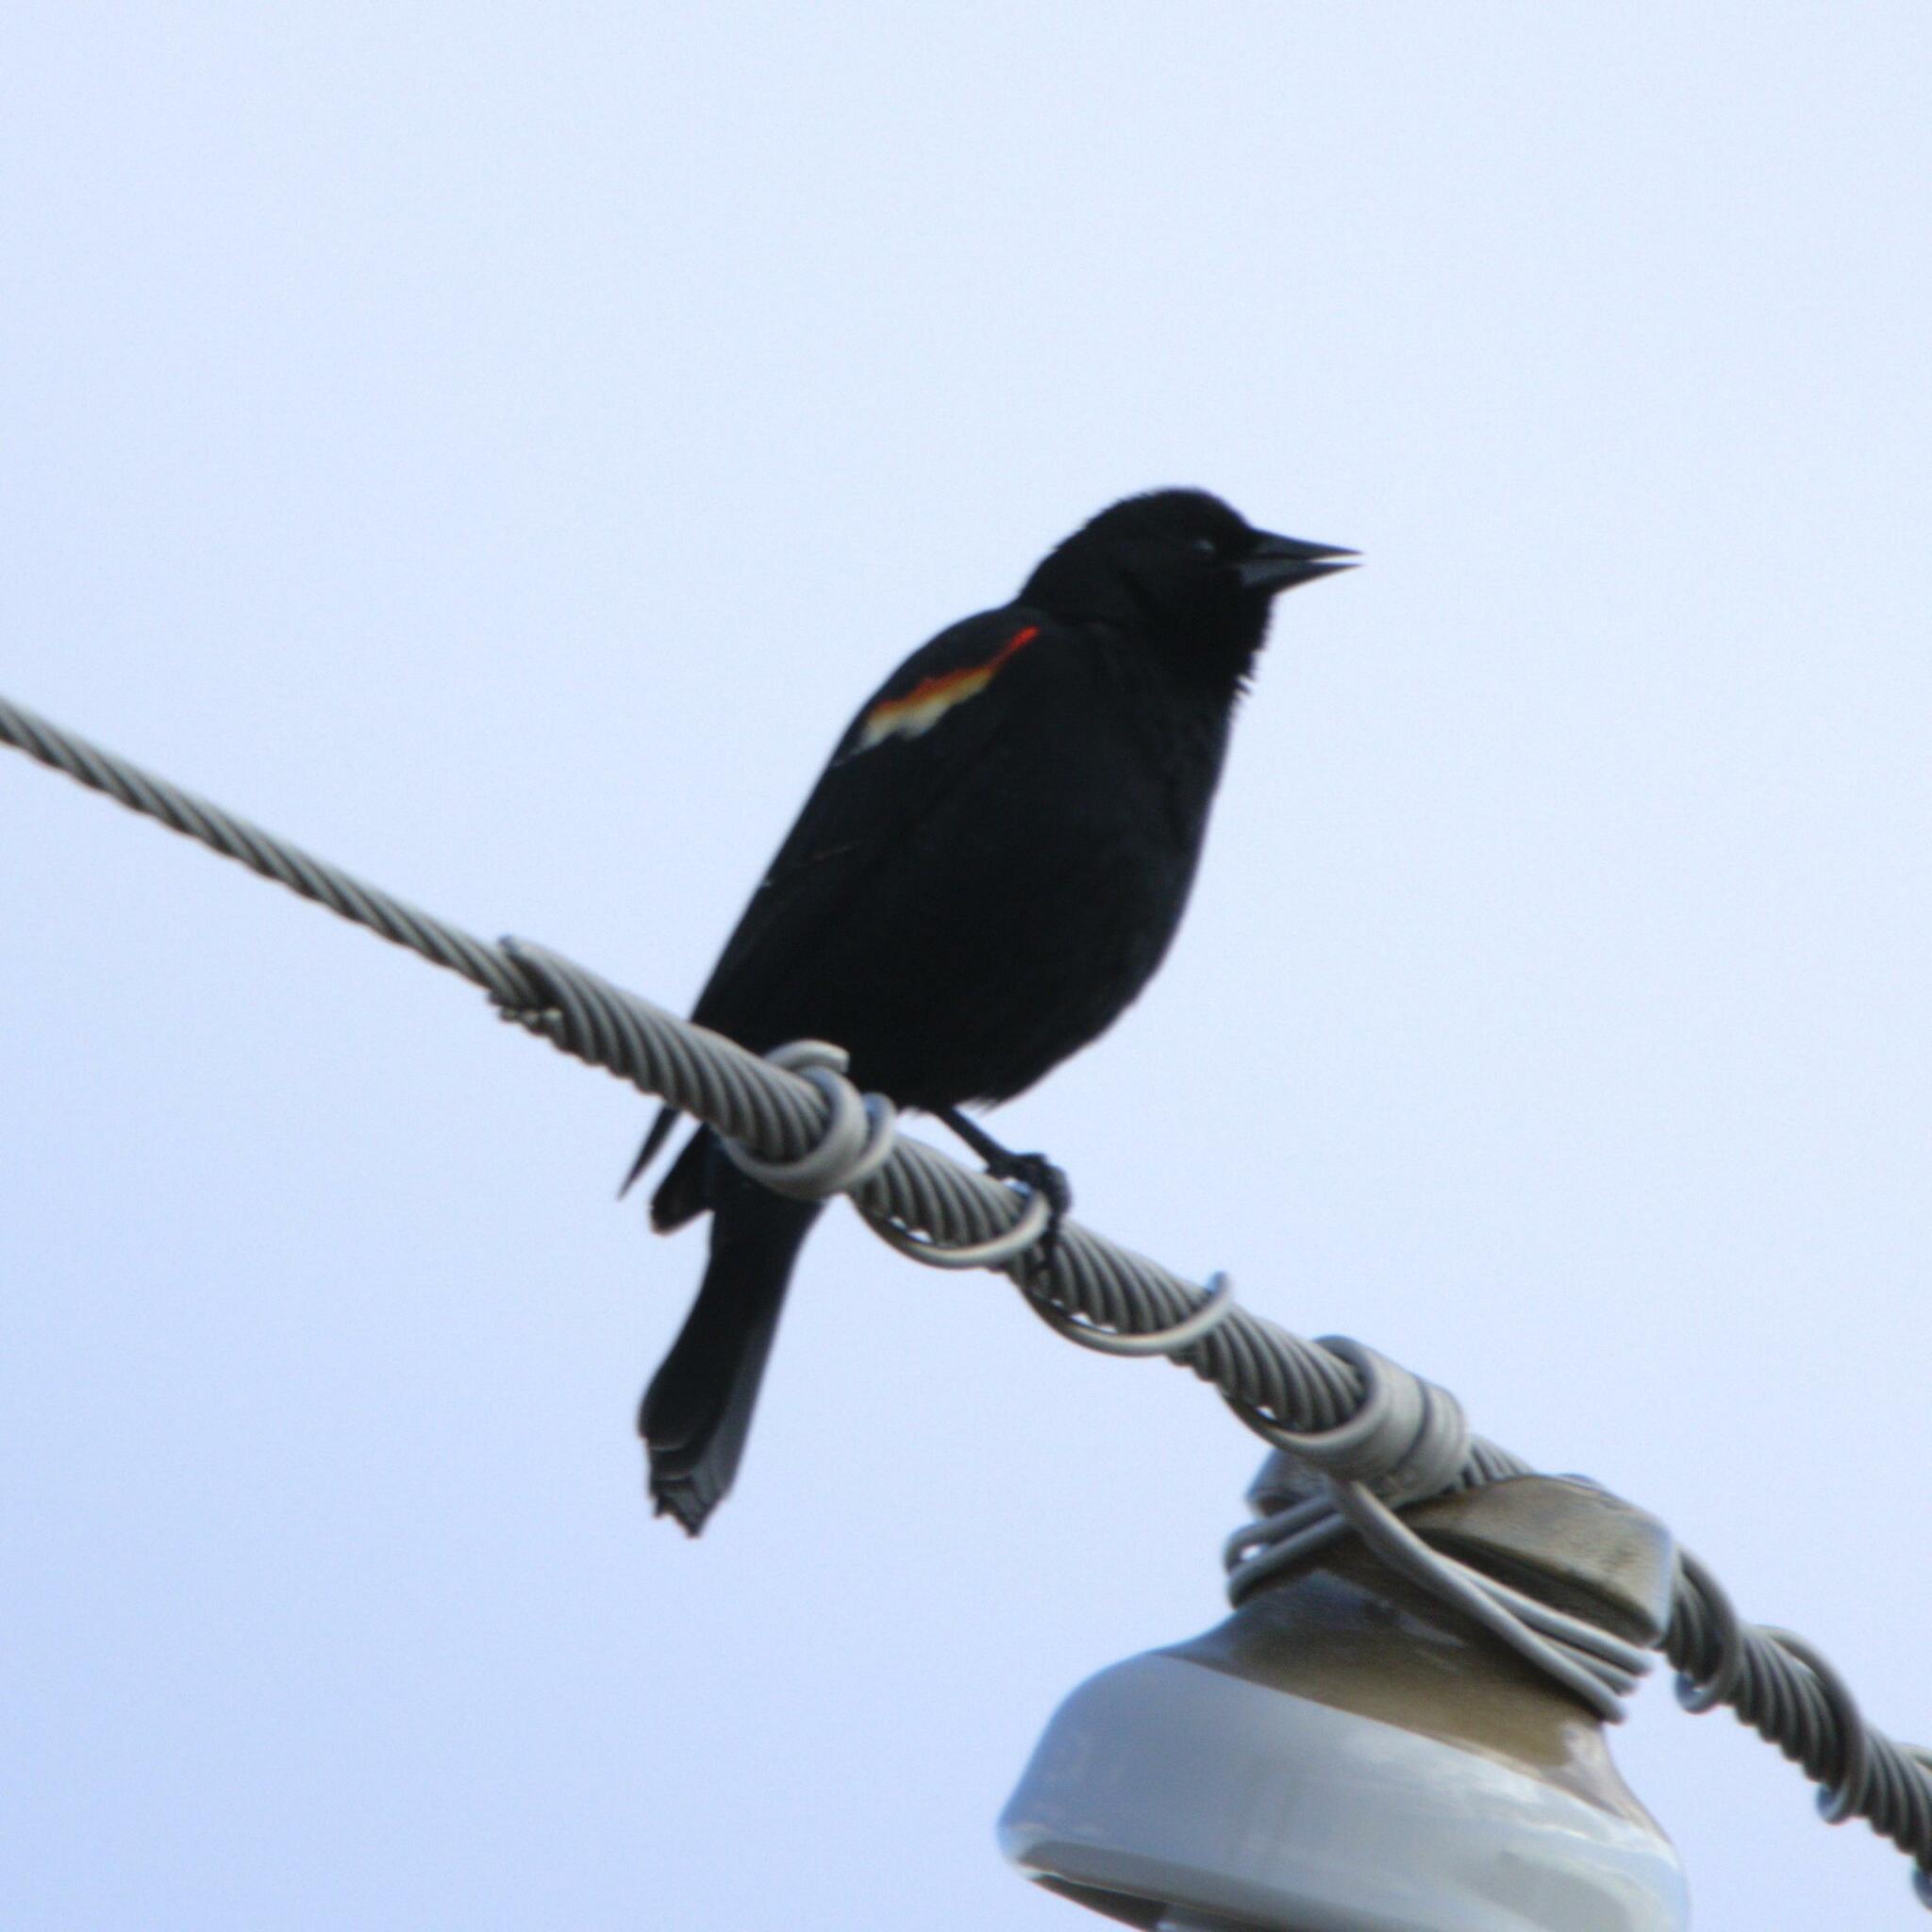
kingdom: Animalia
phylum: Chordata
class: Aves
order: Passeriformes
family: Icteridae
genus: Agelaius
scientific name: Agelaius phoeniceus
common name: Red-winged blackbird
